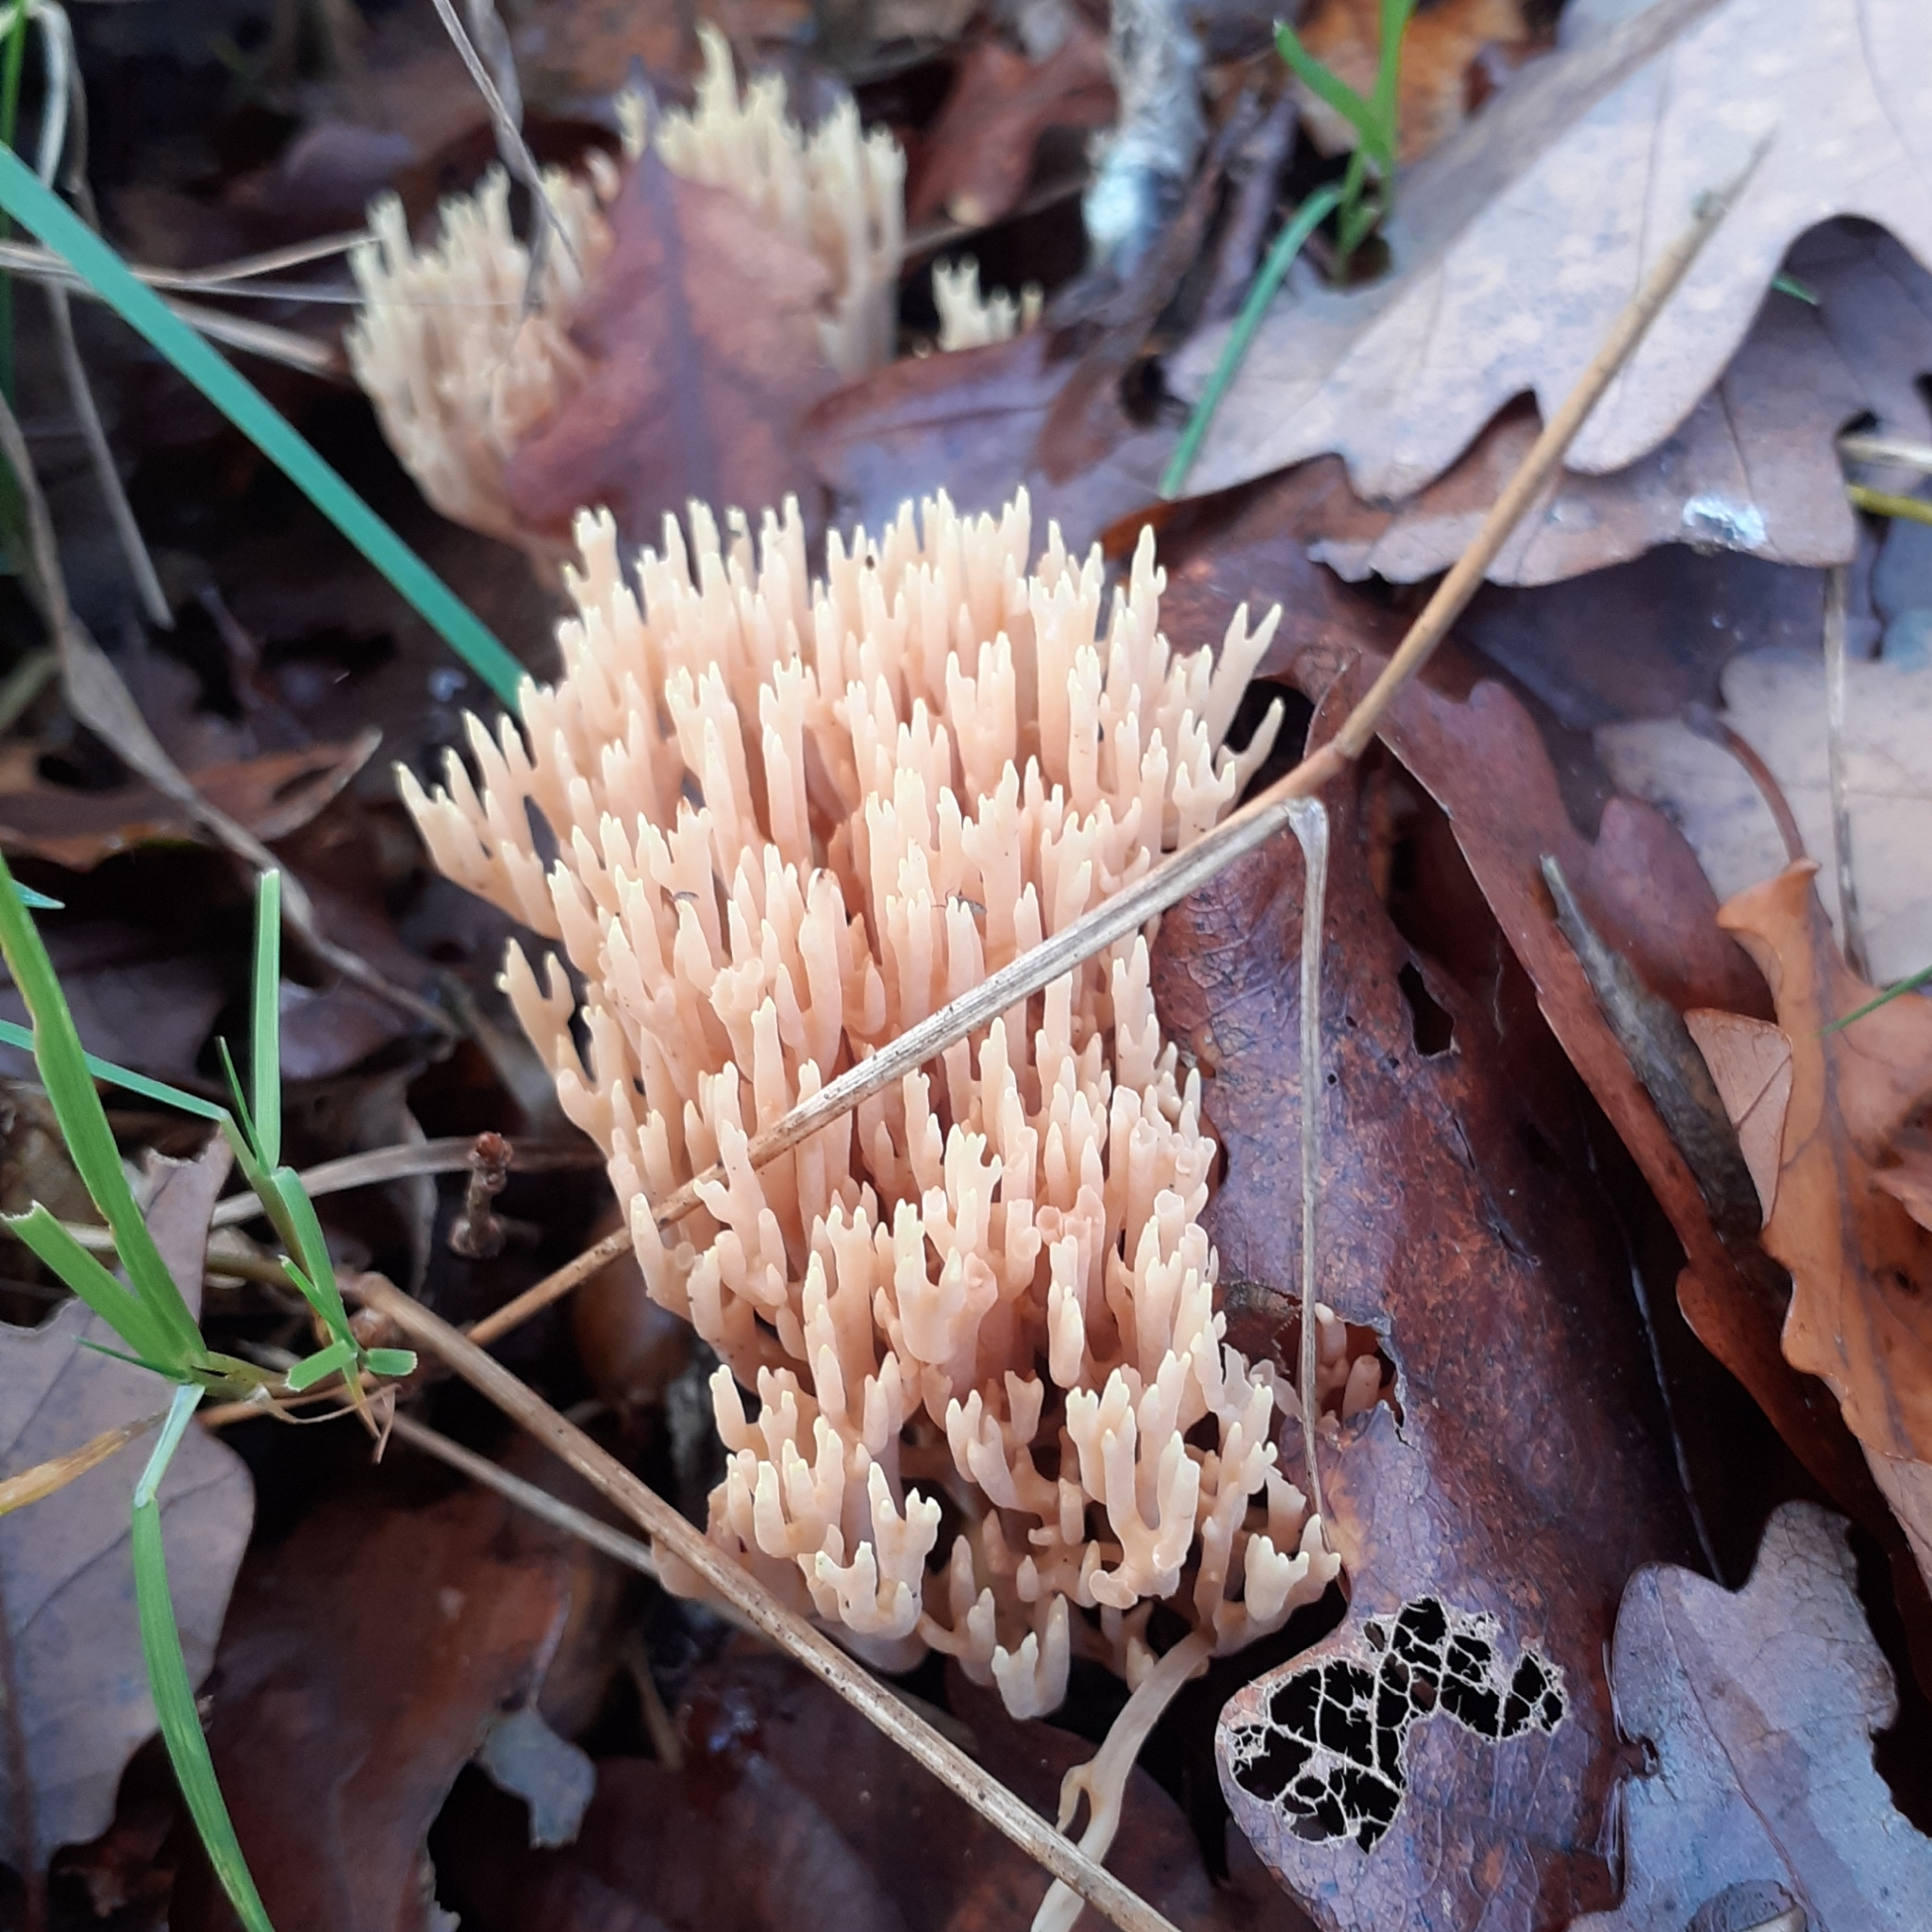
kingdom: Fungi
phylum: Basidiomycota
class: Agaricomycetes
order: Gomphales
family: Gomphaceae
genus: Ramaria
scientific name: Ramaria stricta
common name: Upright coral
